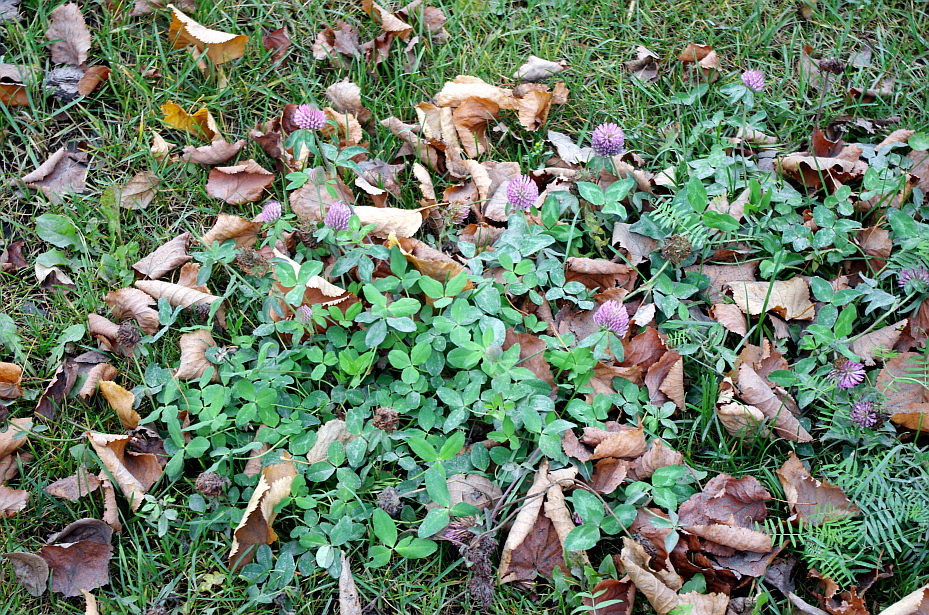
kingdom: Plantae
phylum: Tracheophyta
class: Magnoliopsida
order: Fabales
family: Fabaceae
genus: Trifolium
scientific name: Trifolium pratense
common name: Red clover
